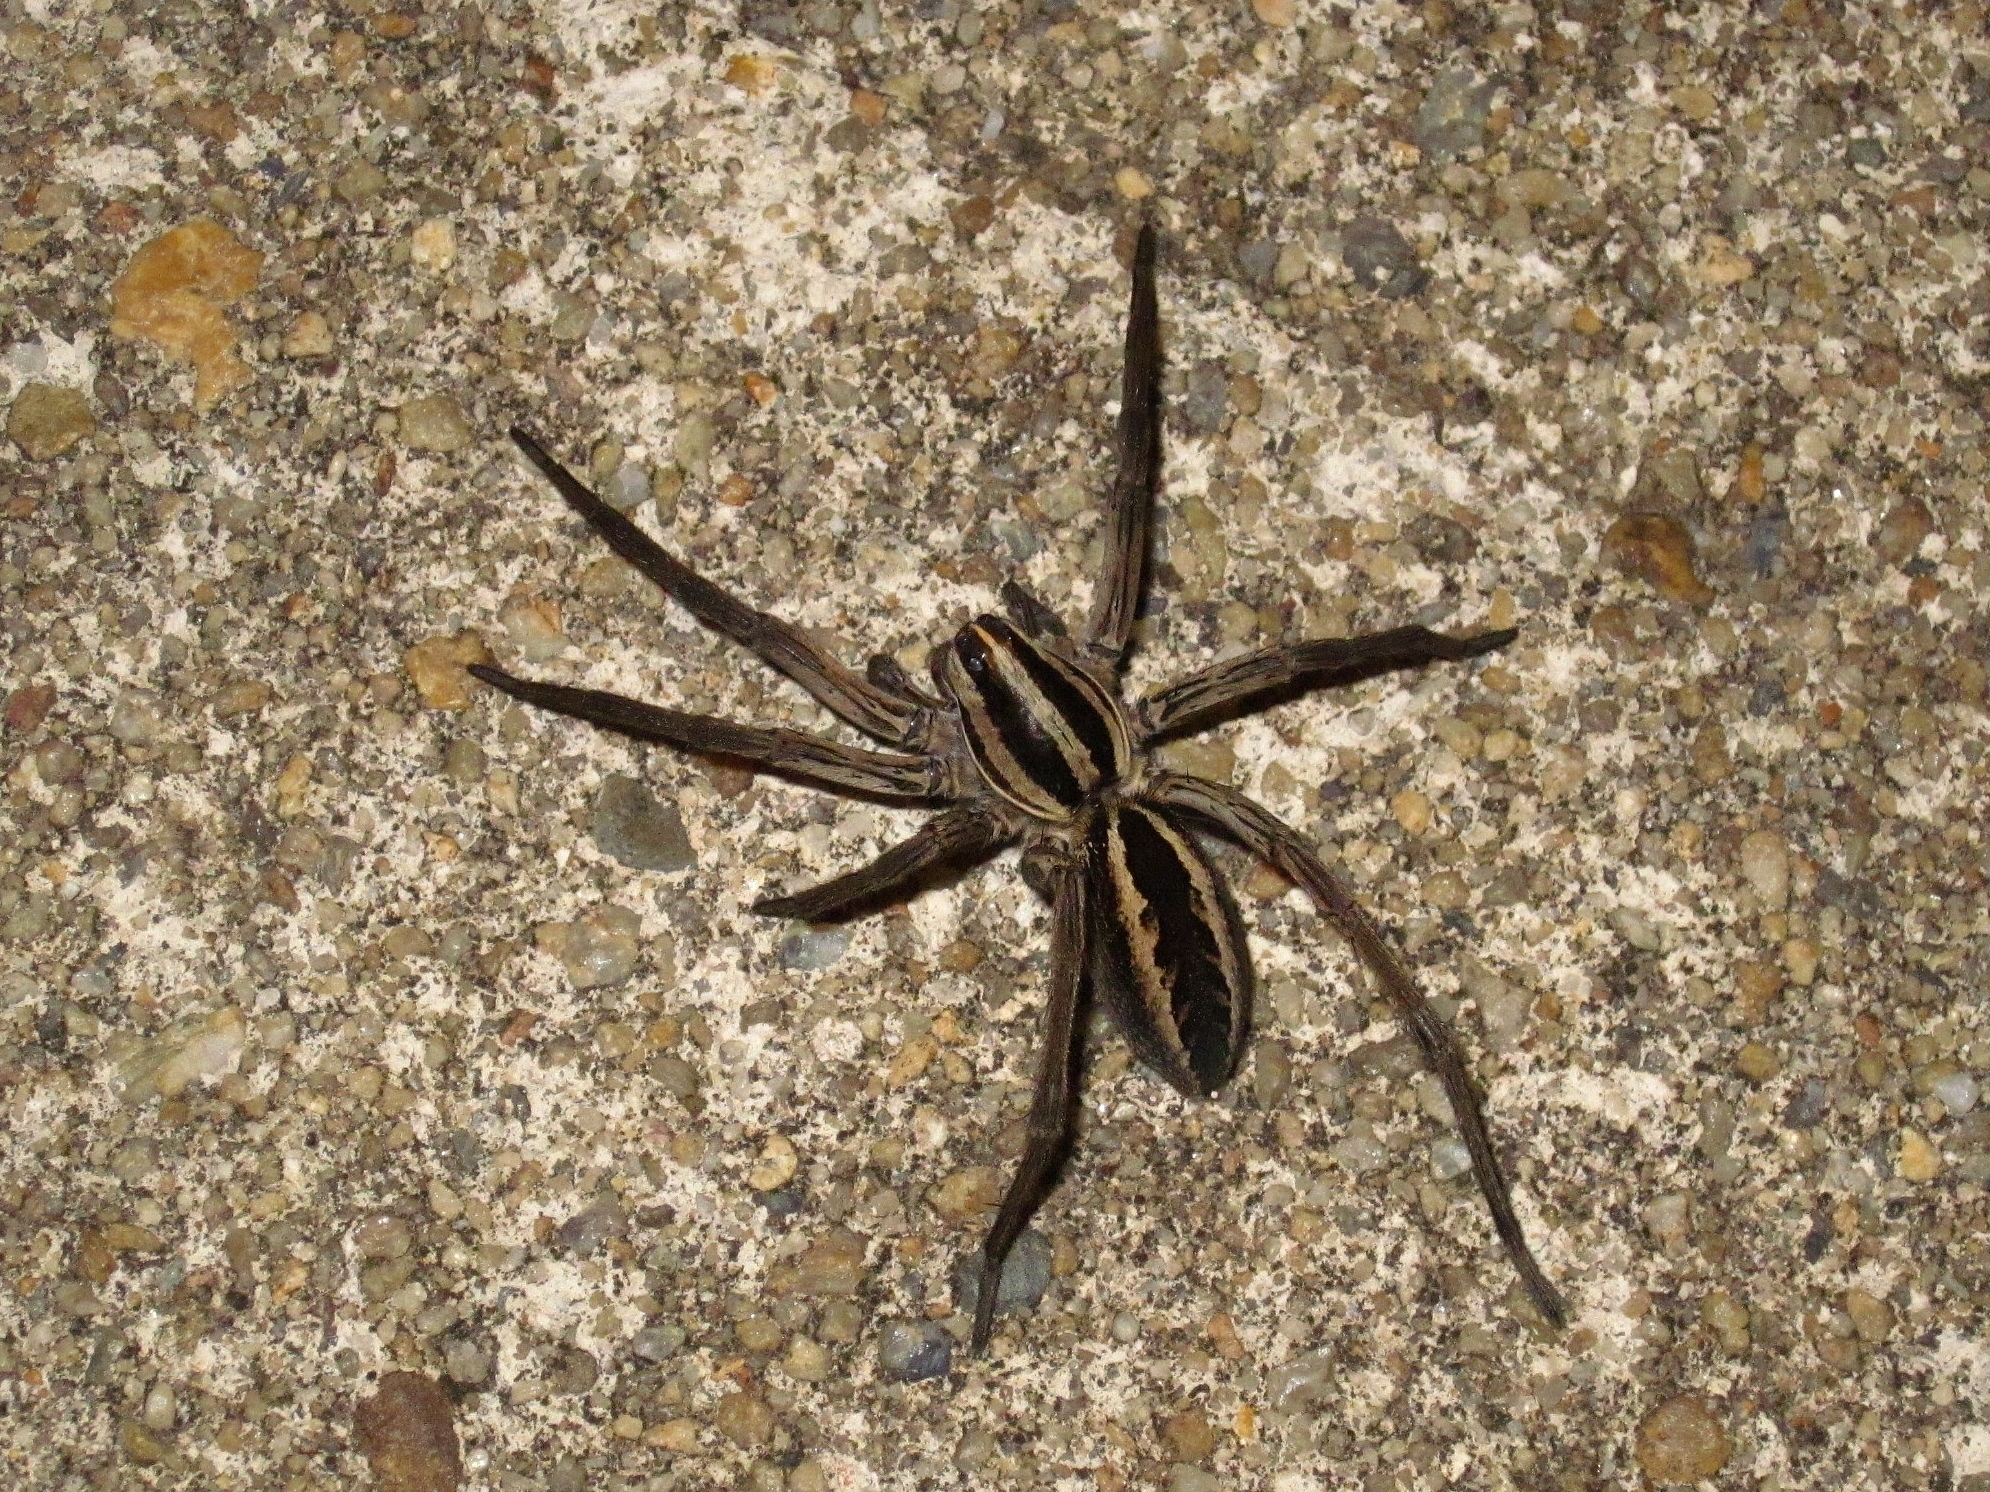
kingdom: Animalia
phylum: Arthropoda
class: Arachnida
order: Araneae
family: Lycosidae
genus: Rabidosa
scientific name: Rabidosa rabida
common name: Rabid wolf spider
